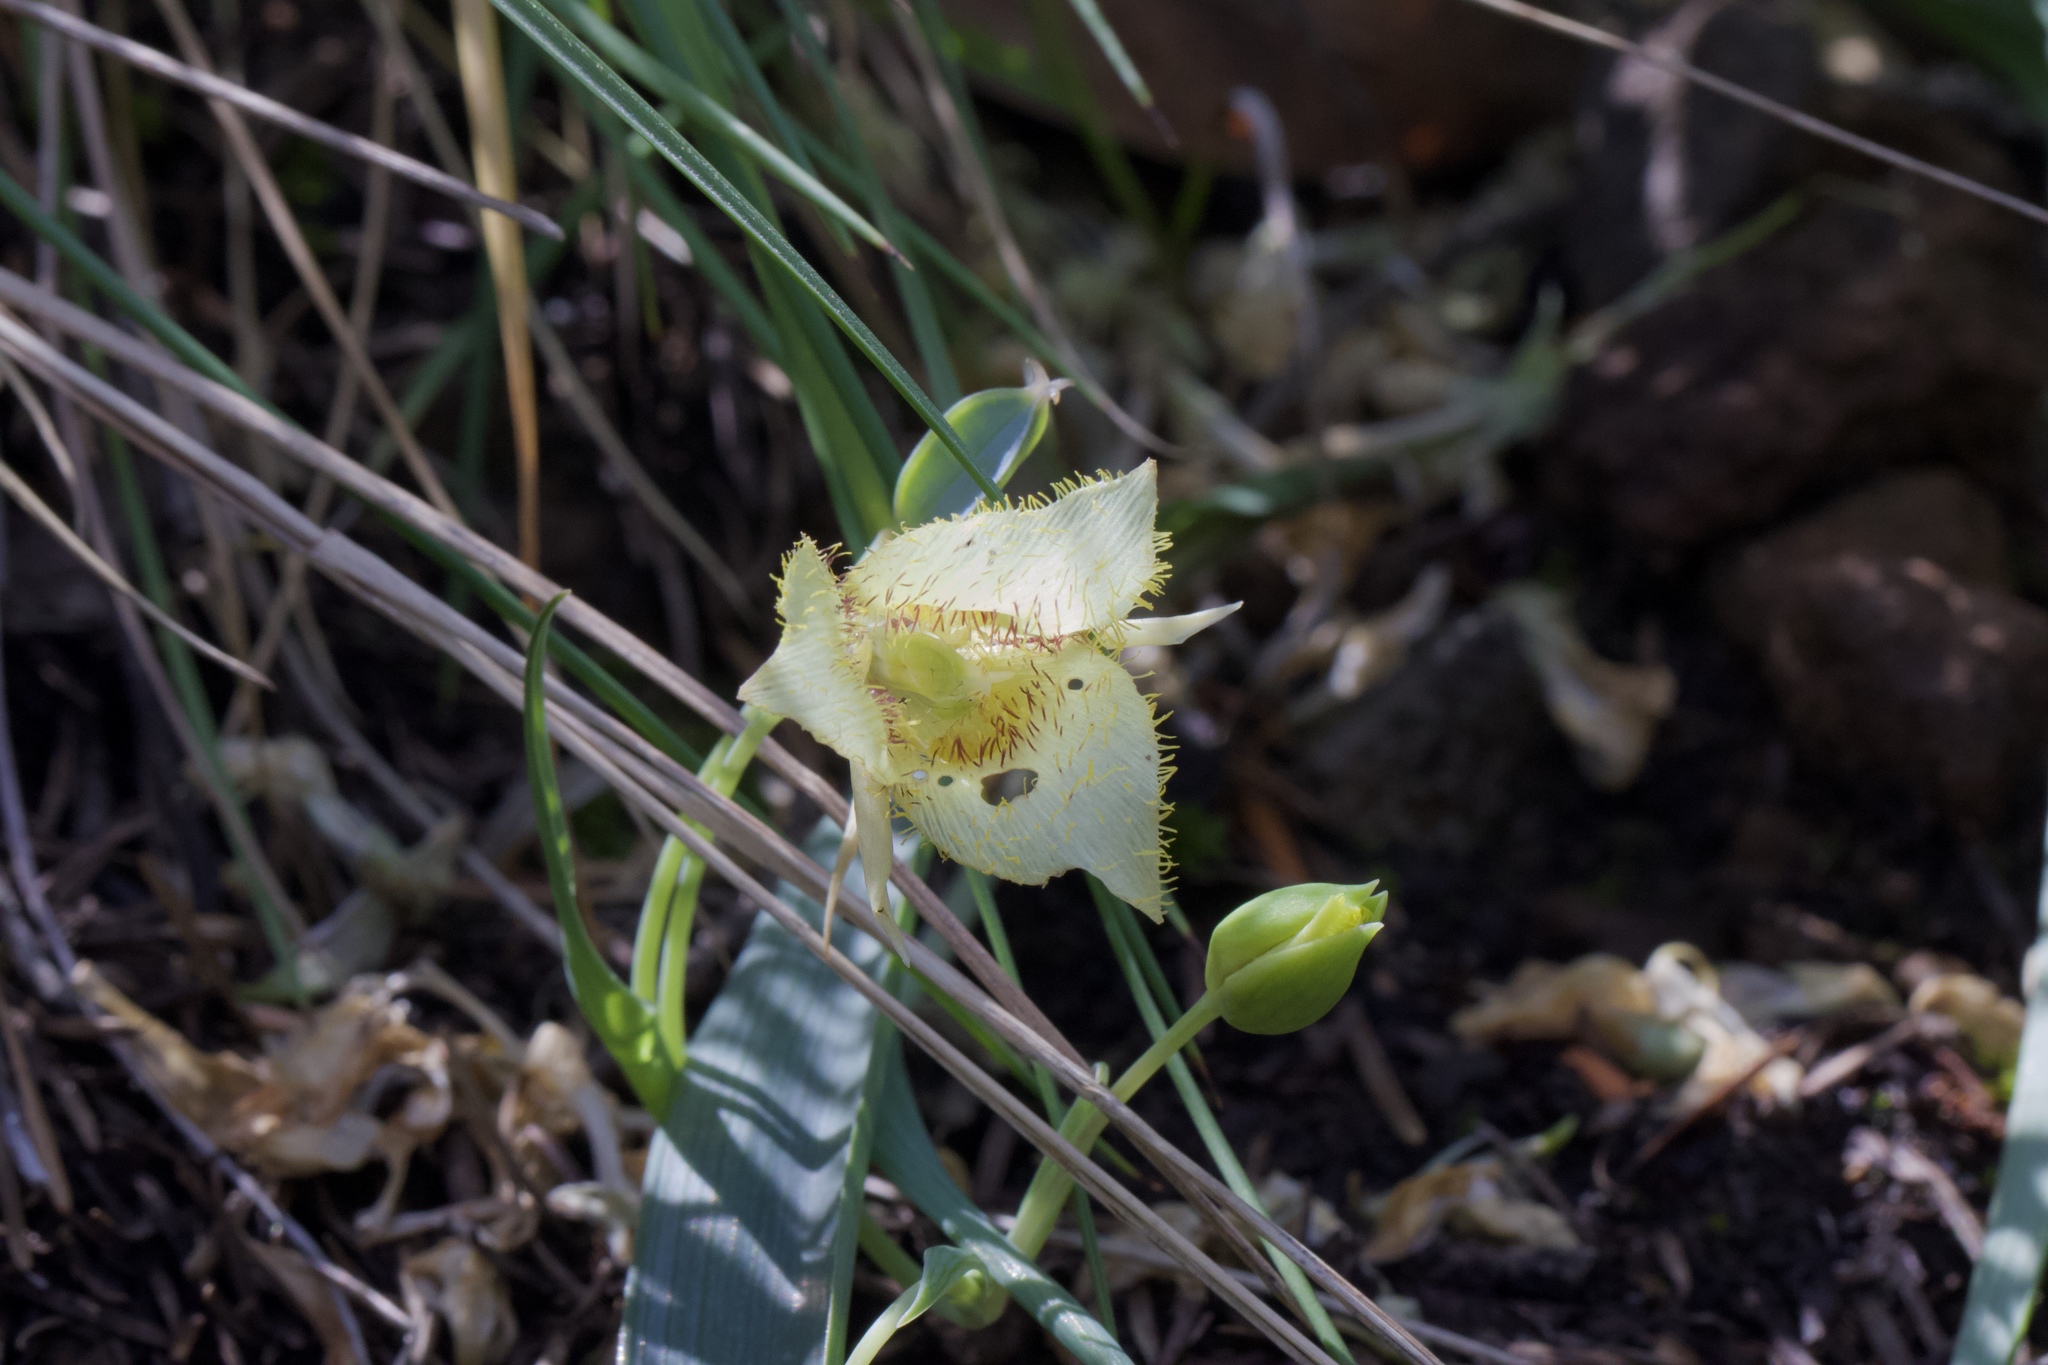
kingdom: Plantae
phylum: Tracheophyta
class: Liliopsida
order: Liliales
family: Liliaceae
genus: Calochortus
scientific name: Calochortus
